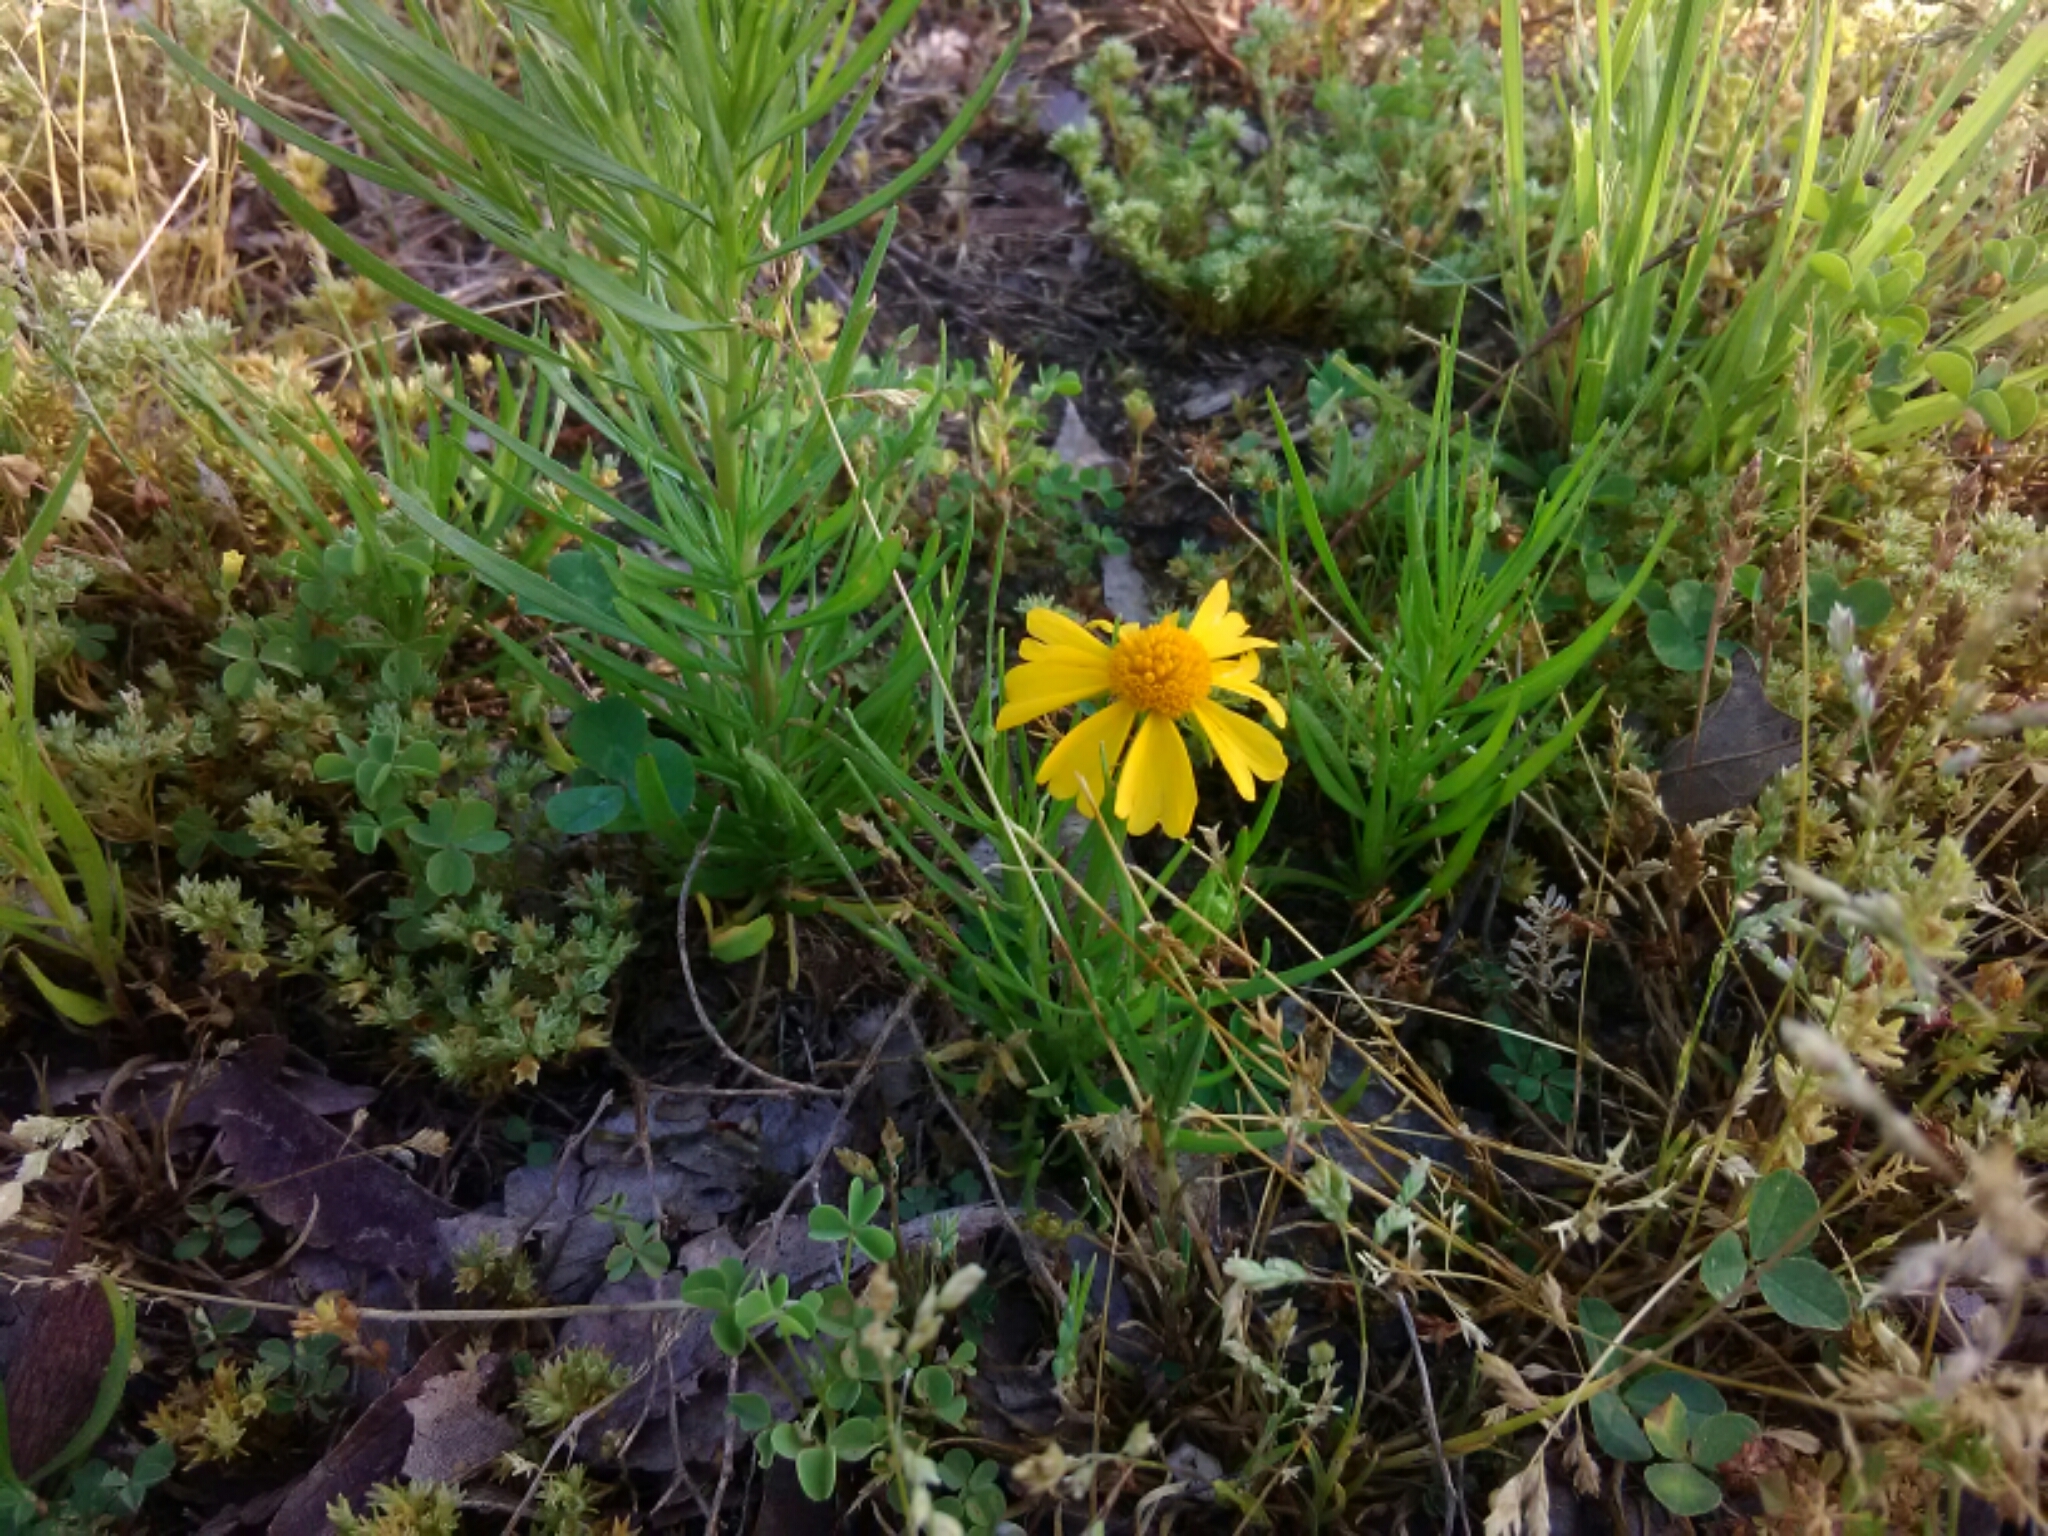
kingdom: Plantae
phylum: Tracheophyta
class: Magnoliopsida
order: Asterales
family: Asteraceae
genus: Helenium
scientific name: Helenium amarum
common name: Bitter sneezeweed
